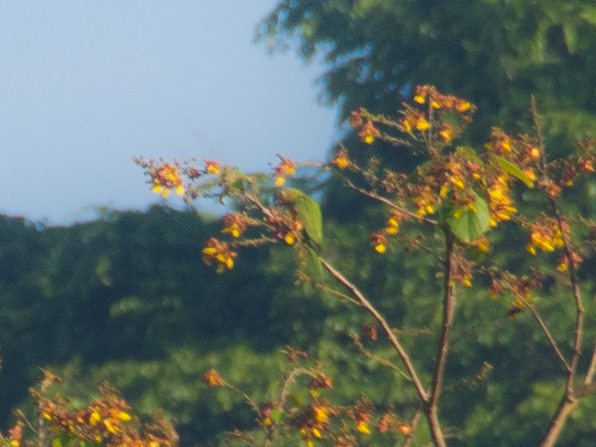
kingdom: Animalia
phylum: Chordata
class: Aves
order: Psittaciformes
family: Psittacidae
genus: Aratinga
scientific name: Aratinga pertinax
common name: Brown-throated parakeet
